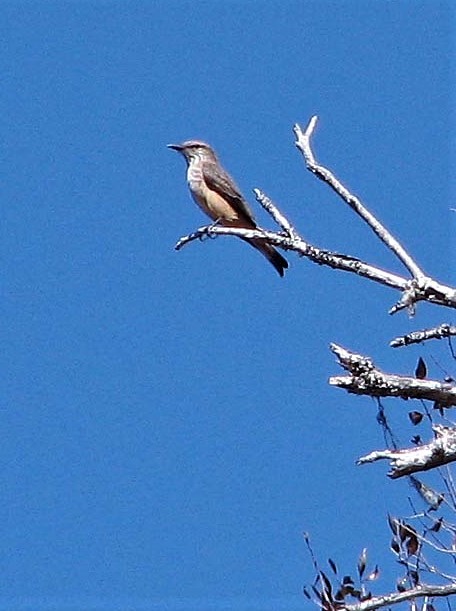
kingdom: Animalia
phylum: Chordata
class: Aves
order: Passeriformes
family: Tyrannidae
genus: Myiotheretes
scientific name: Myiotheretes striaticollis
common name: Streak-throated bush tyrant
